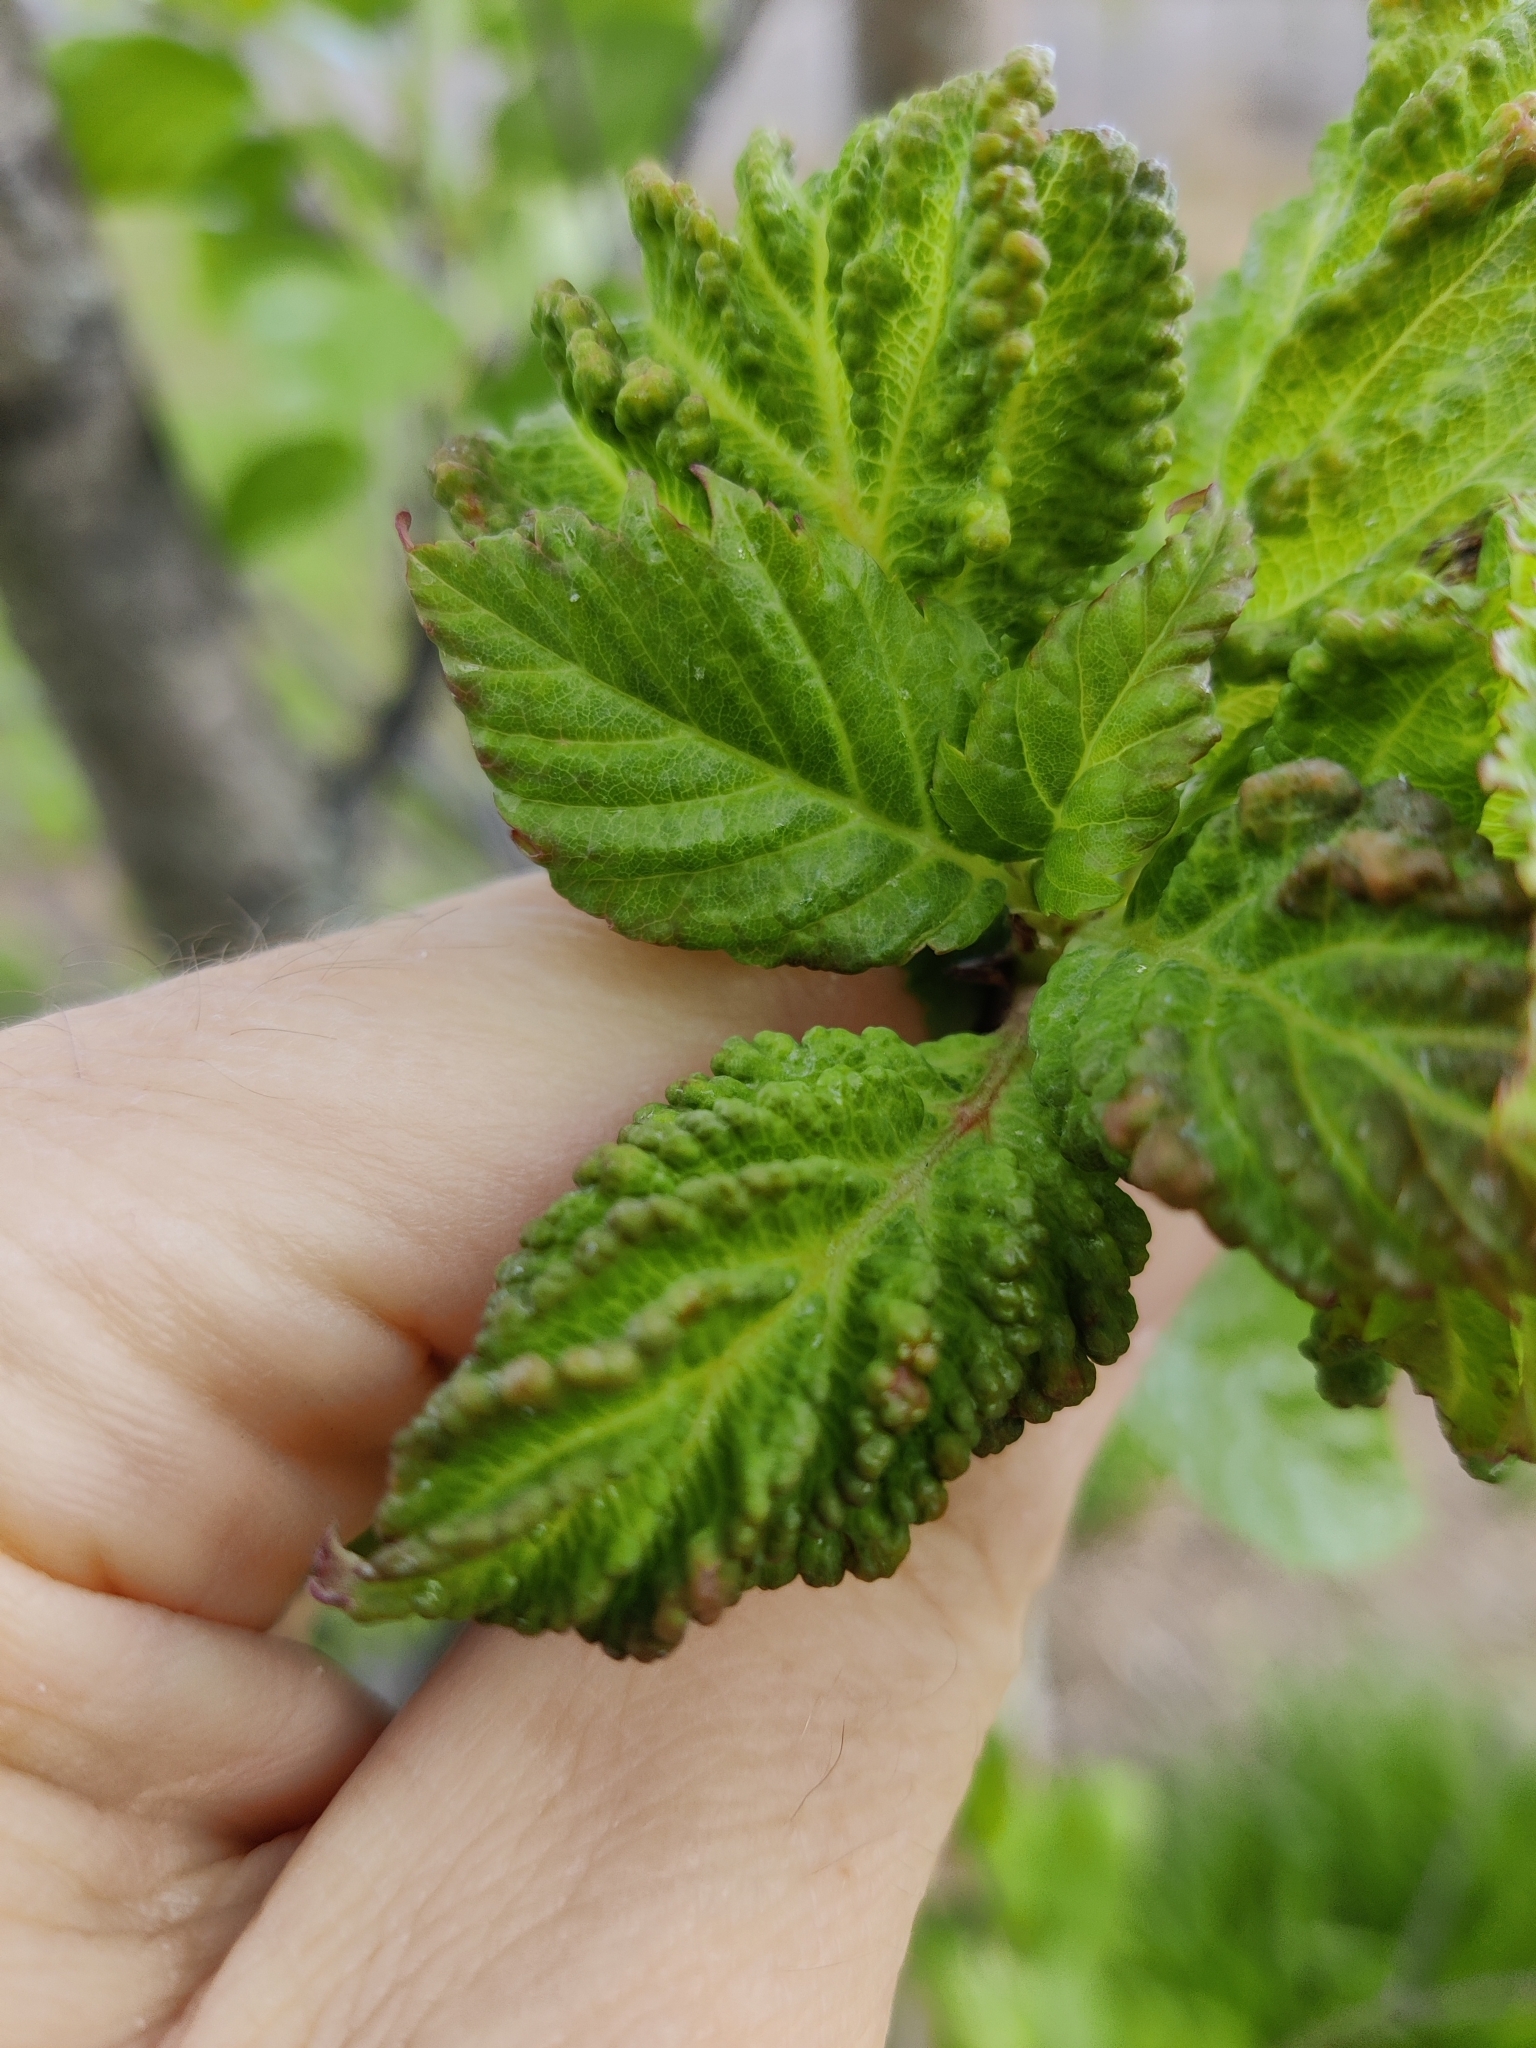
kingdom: Animalia
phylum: Arthropoda
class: Insecta
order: Hemiptera
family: Aphididae
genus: Hamamelistes
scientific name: Hamamelistes spinosus
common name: Witch hazel gall aphid
